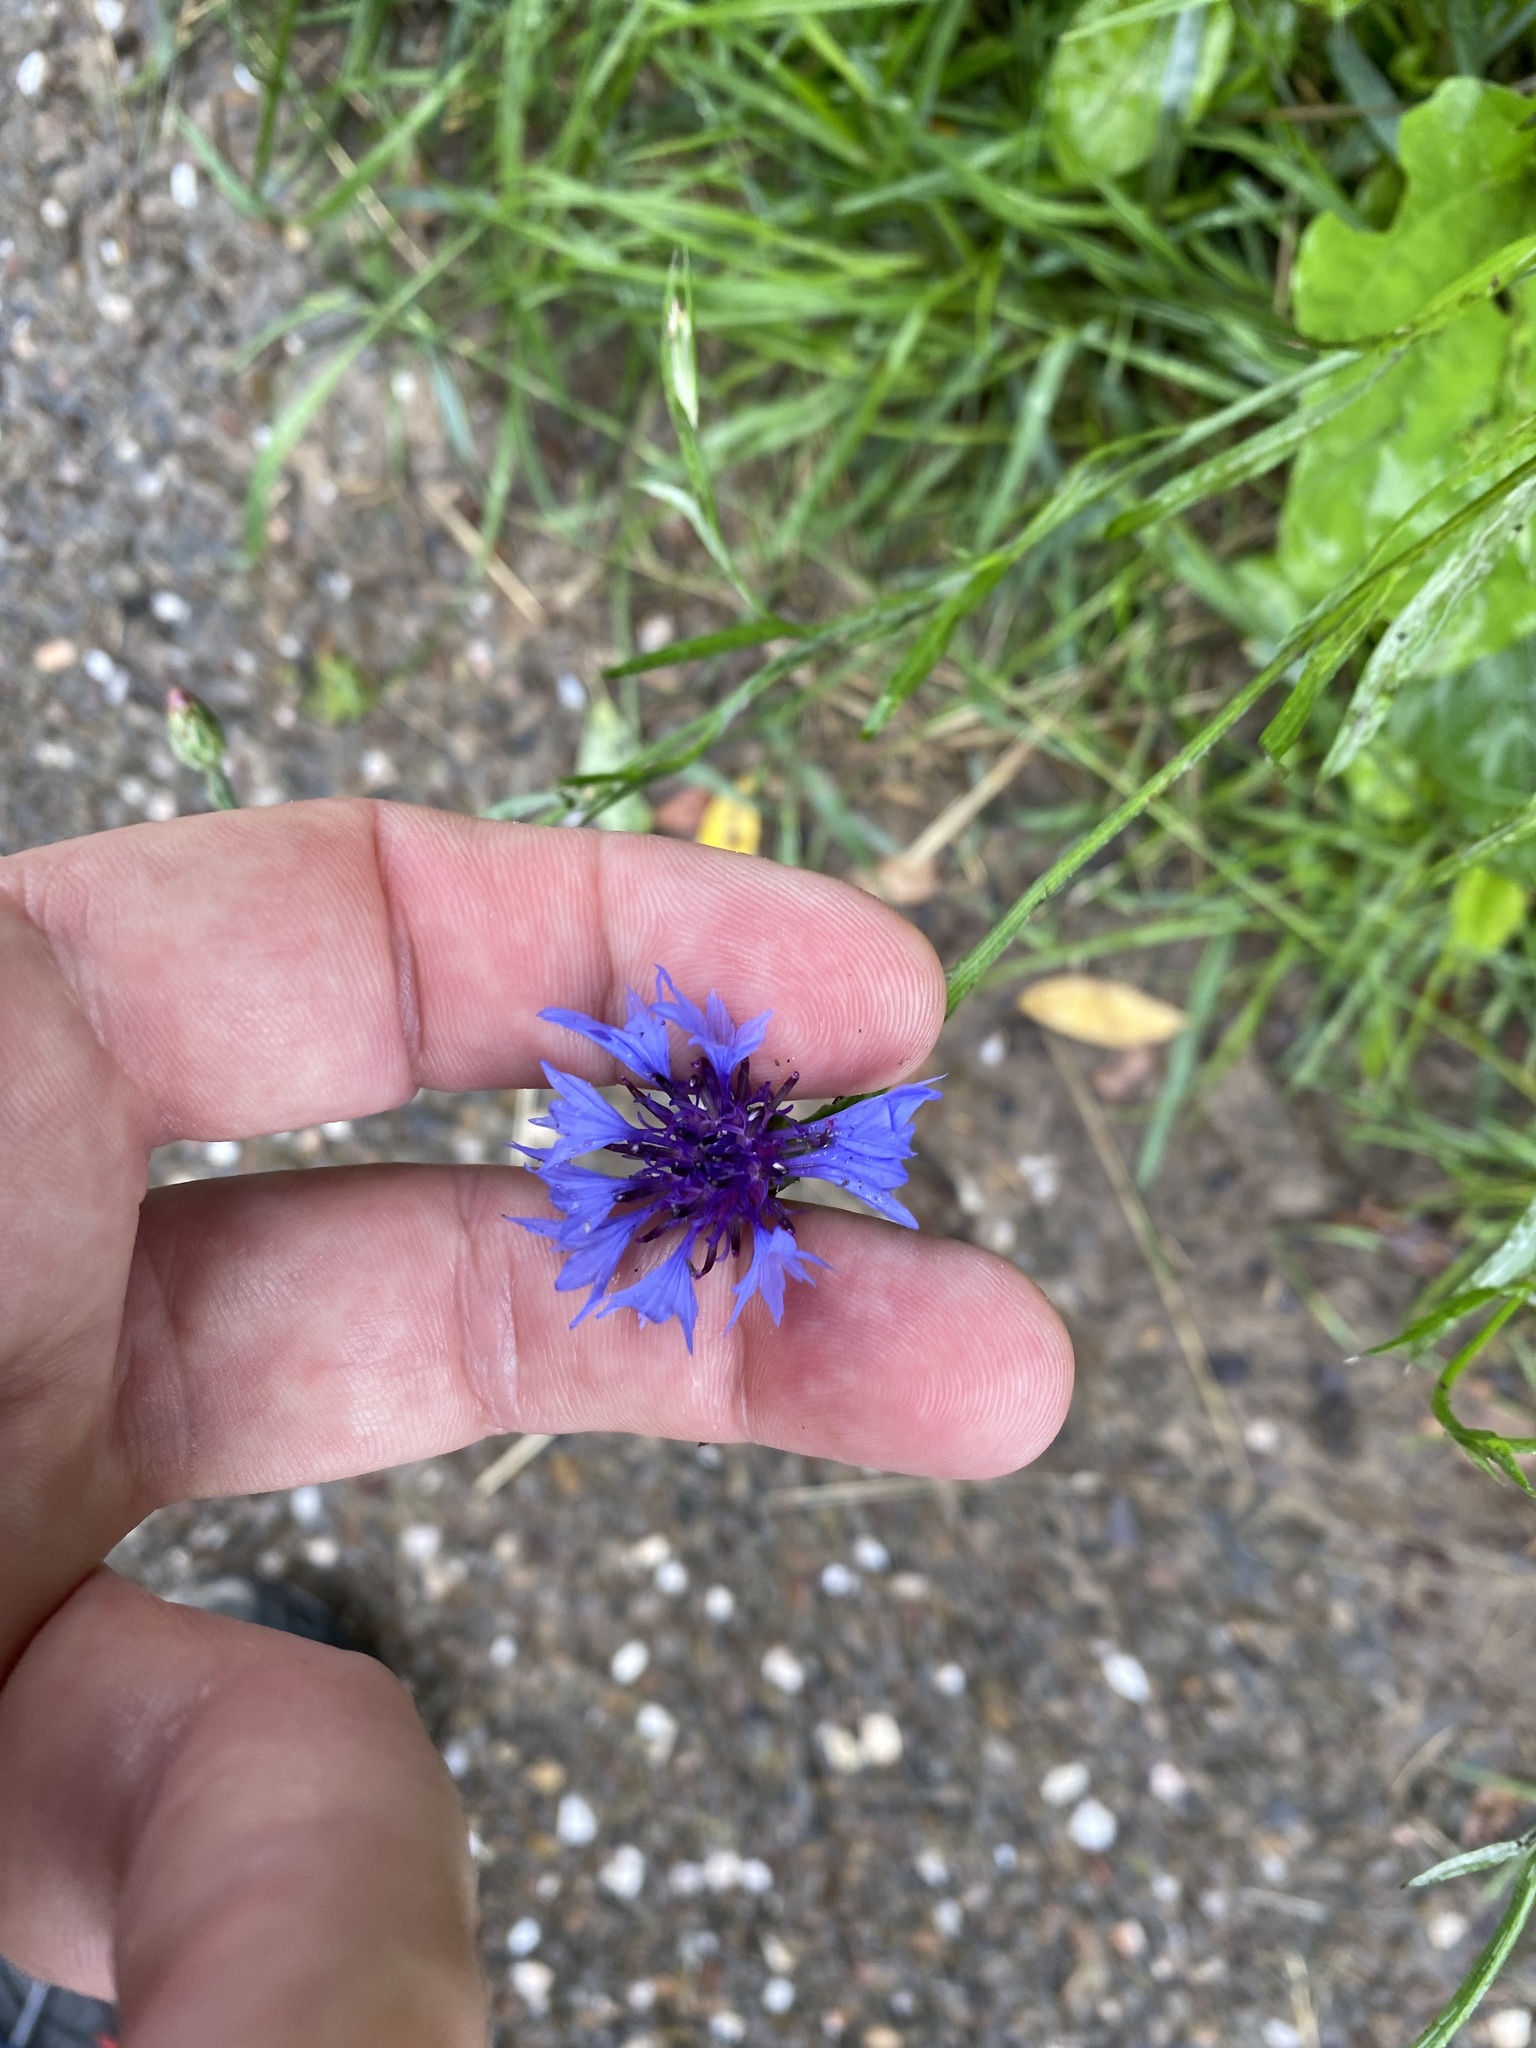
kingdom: Plantae
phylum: Tracheophyta
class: Magnoliopsida
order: Asterales
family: Asteraceae
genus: Centaurea
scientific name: Centaurea cyanus
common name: Cornflower
